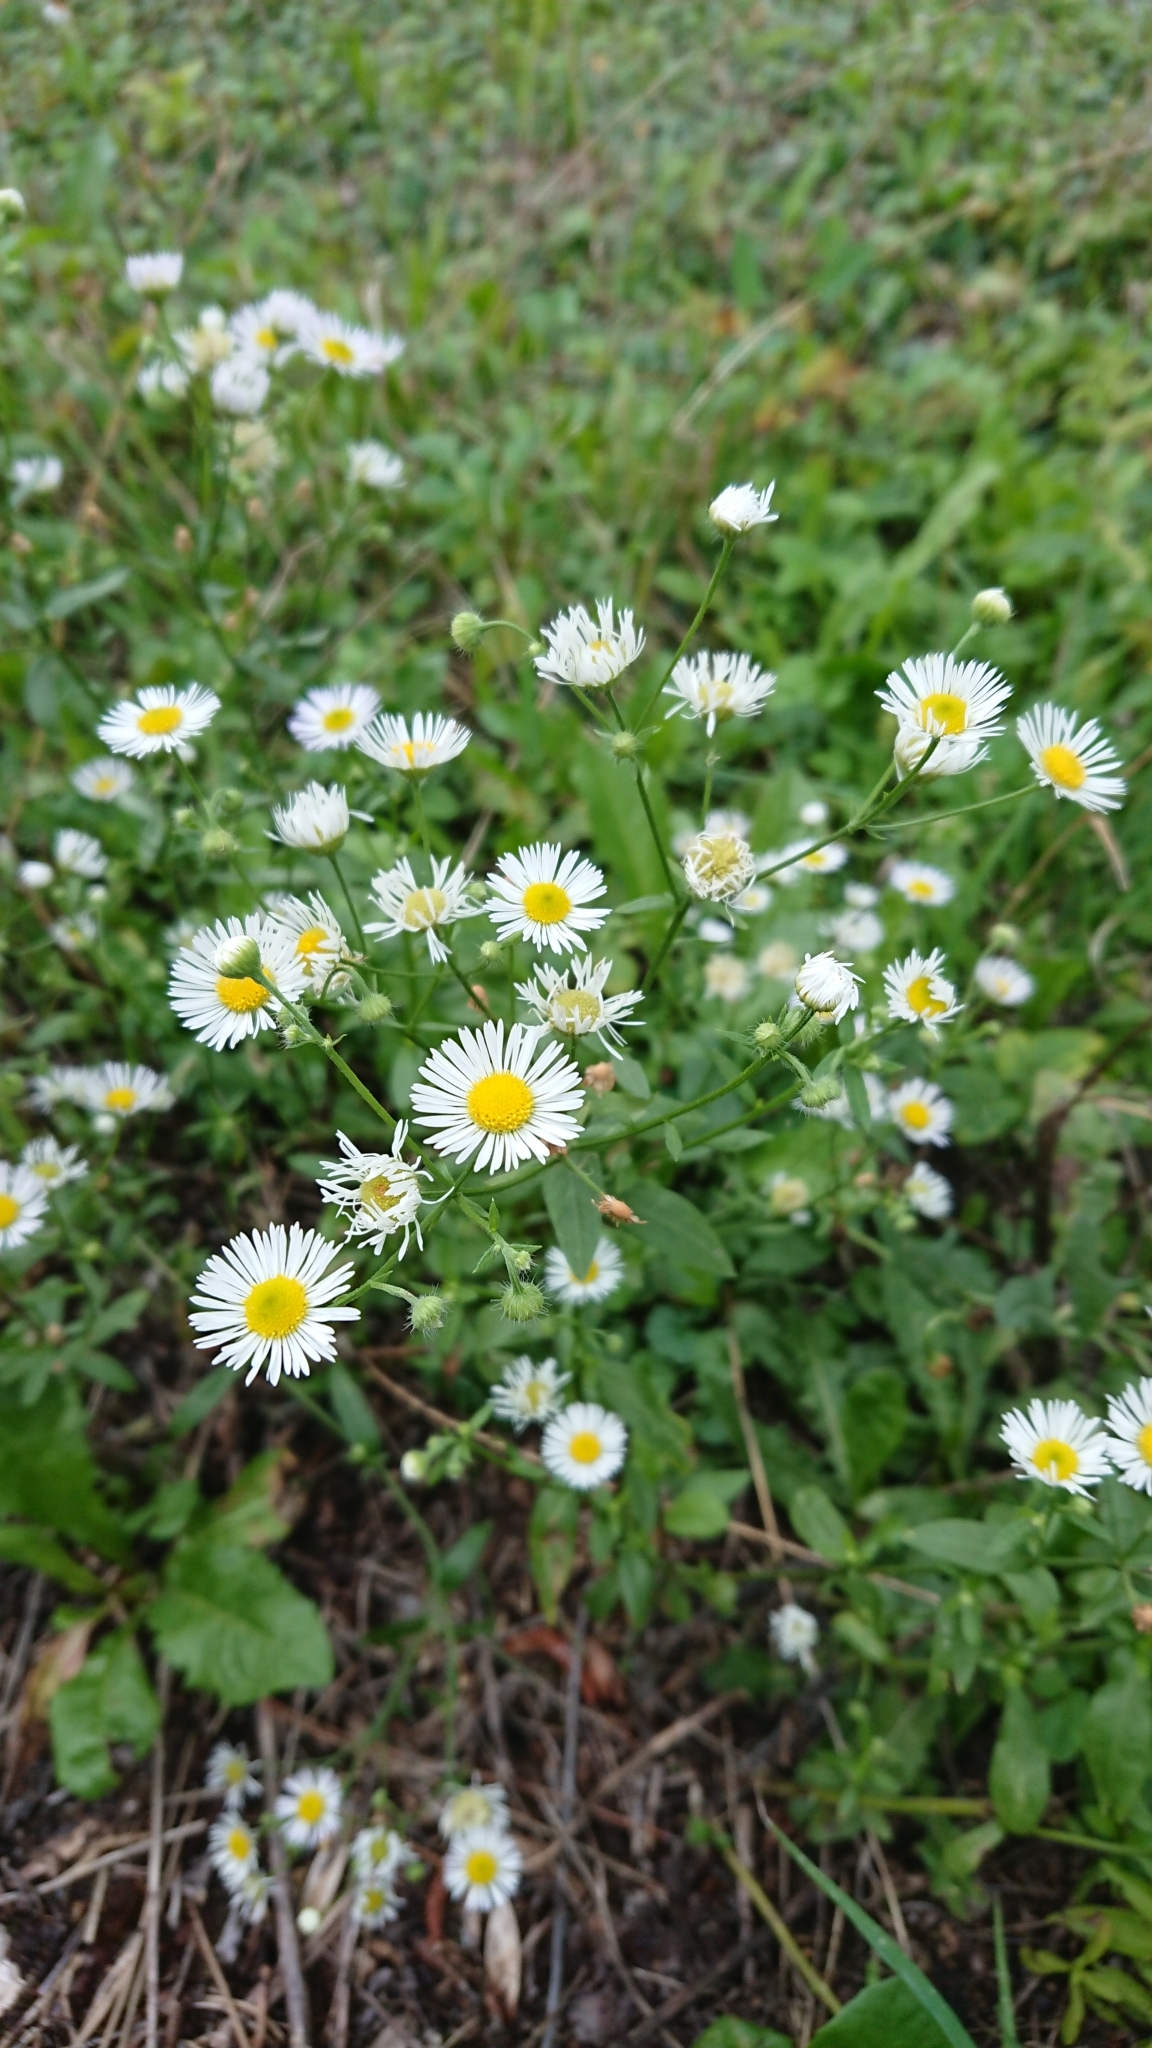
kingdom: Plantae
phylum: Tracheophyta
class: Magnoliopsida
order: Asterales
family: Asteraceae
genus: Erigeron
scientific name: Erigeron annuus
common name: Tall fleabane
